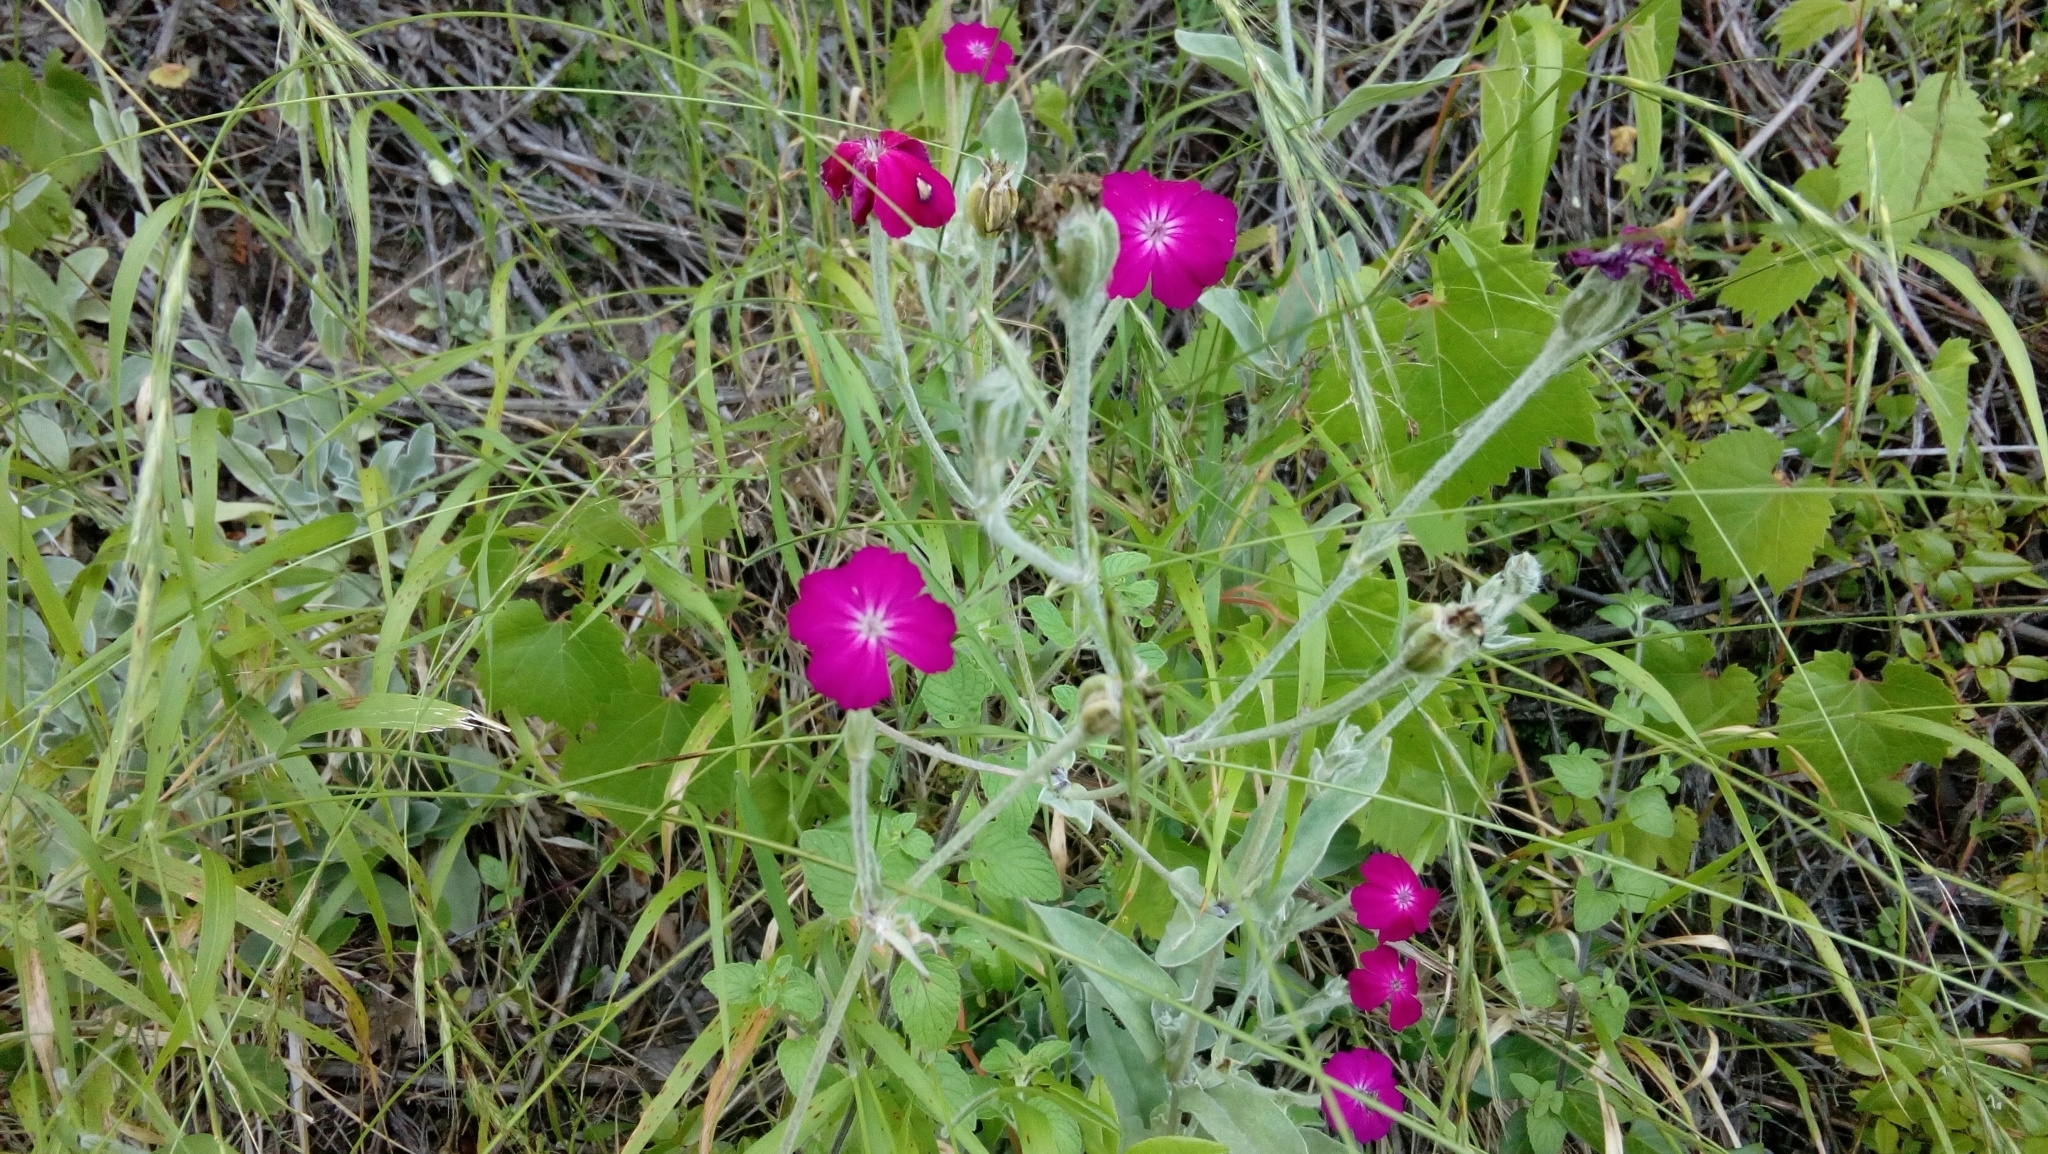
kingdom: Plantae
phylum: Tracheophyta
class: Magnoliopsida
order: Caryophyllales
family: Caryophyllaceae
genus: Silene
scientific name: Silene coronaria
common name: Rose campion
